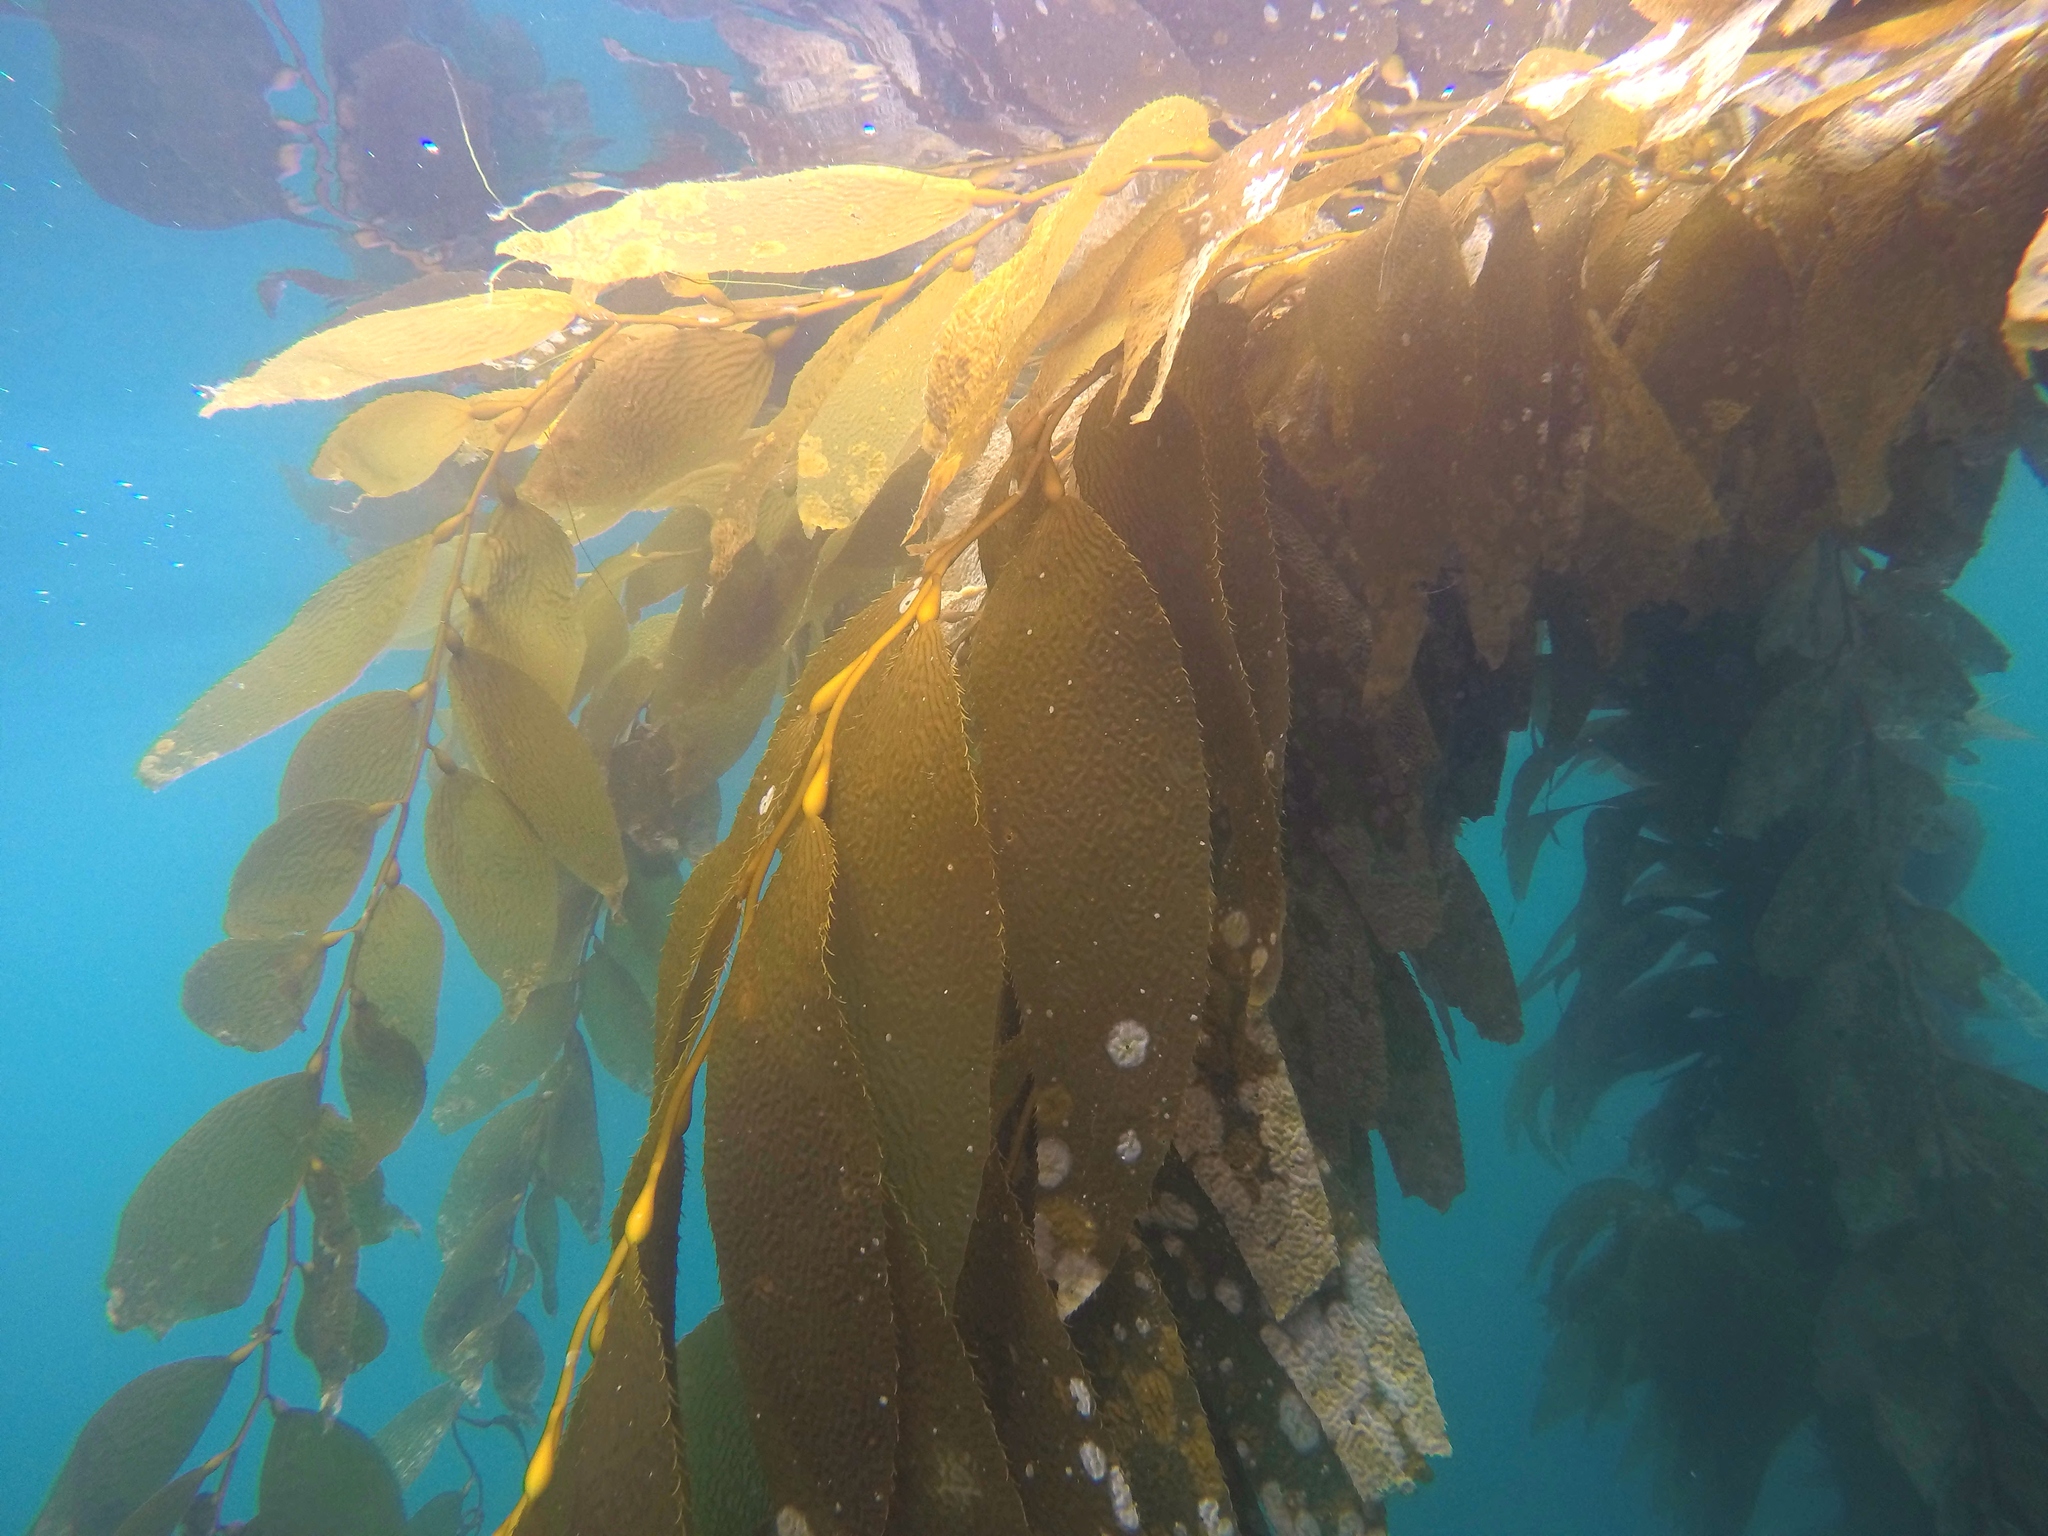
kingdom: Chromista
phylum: Ochrophyta
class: Phaeophyceae
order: Laminariales
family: Laminariaceae
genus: Macrocystis
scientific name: Macrocystis pyrifera
